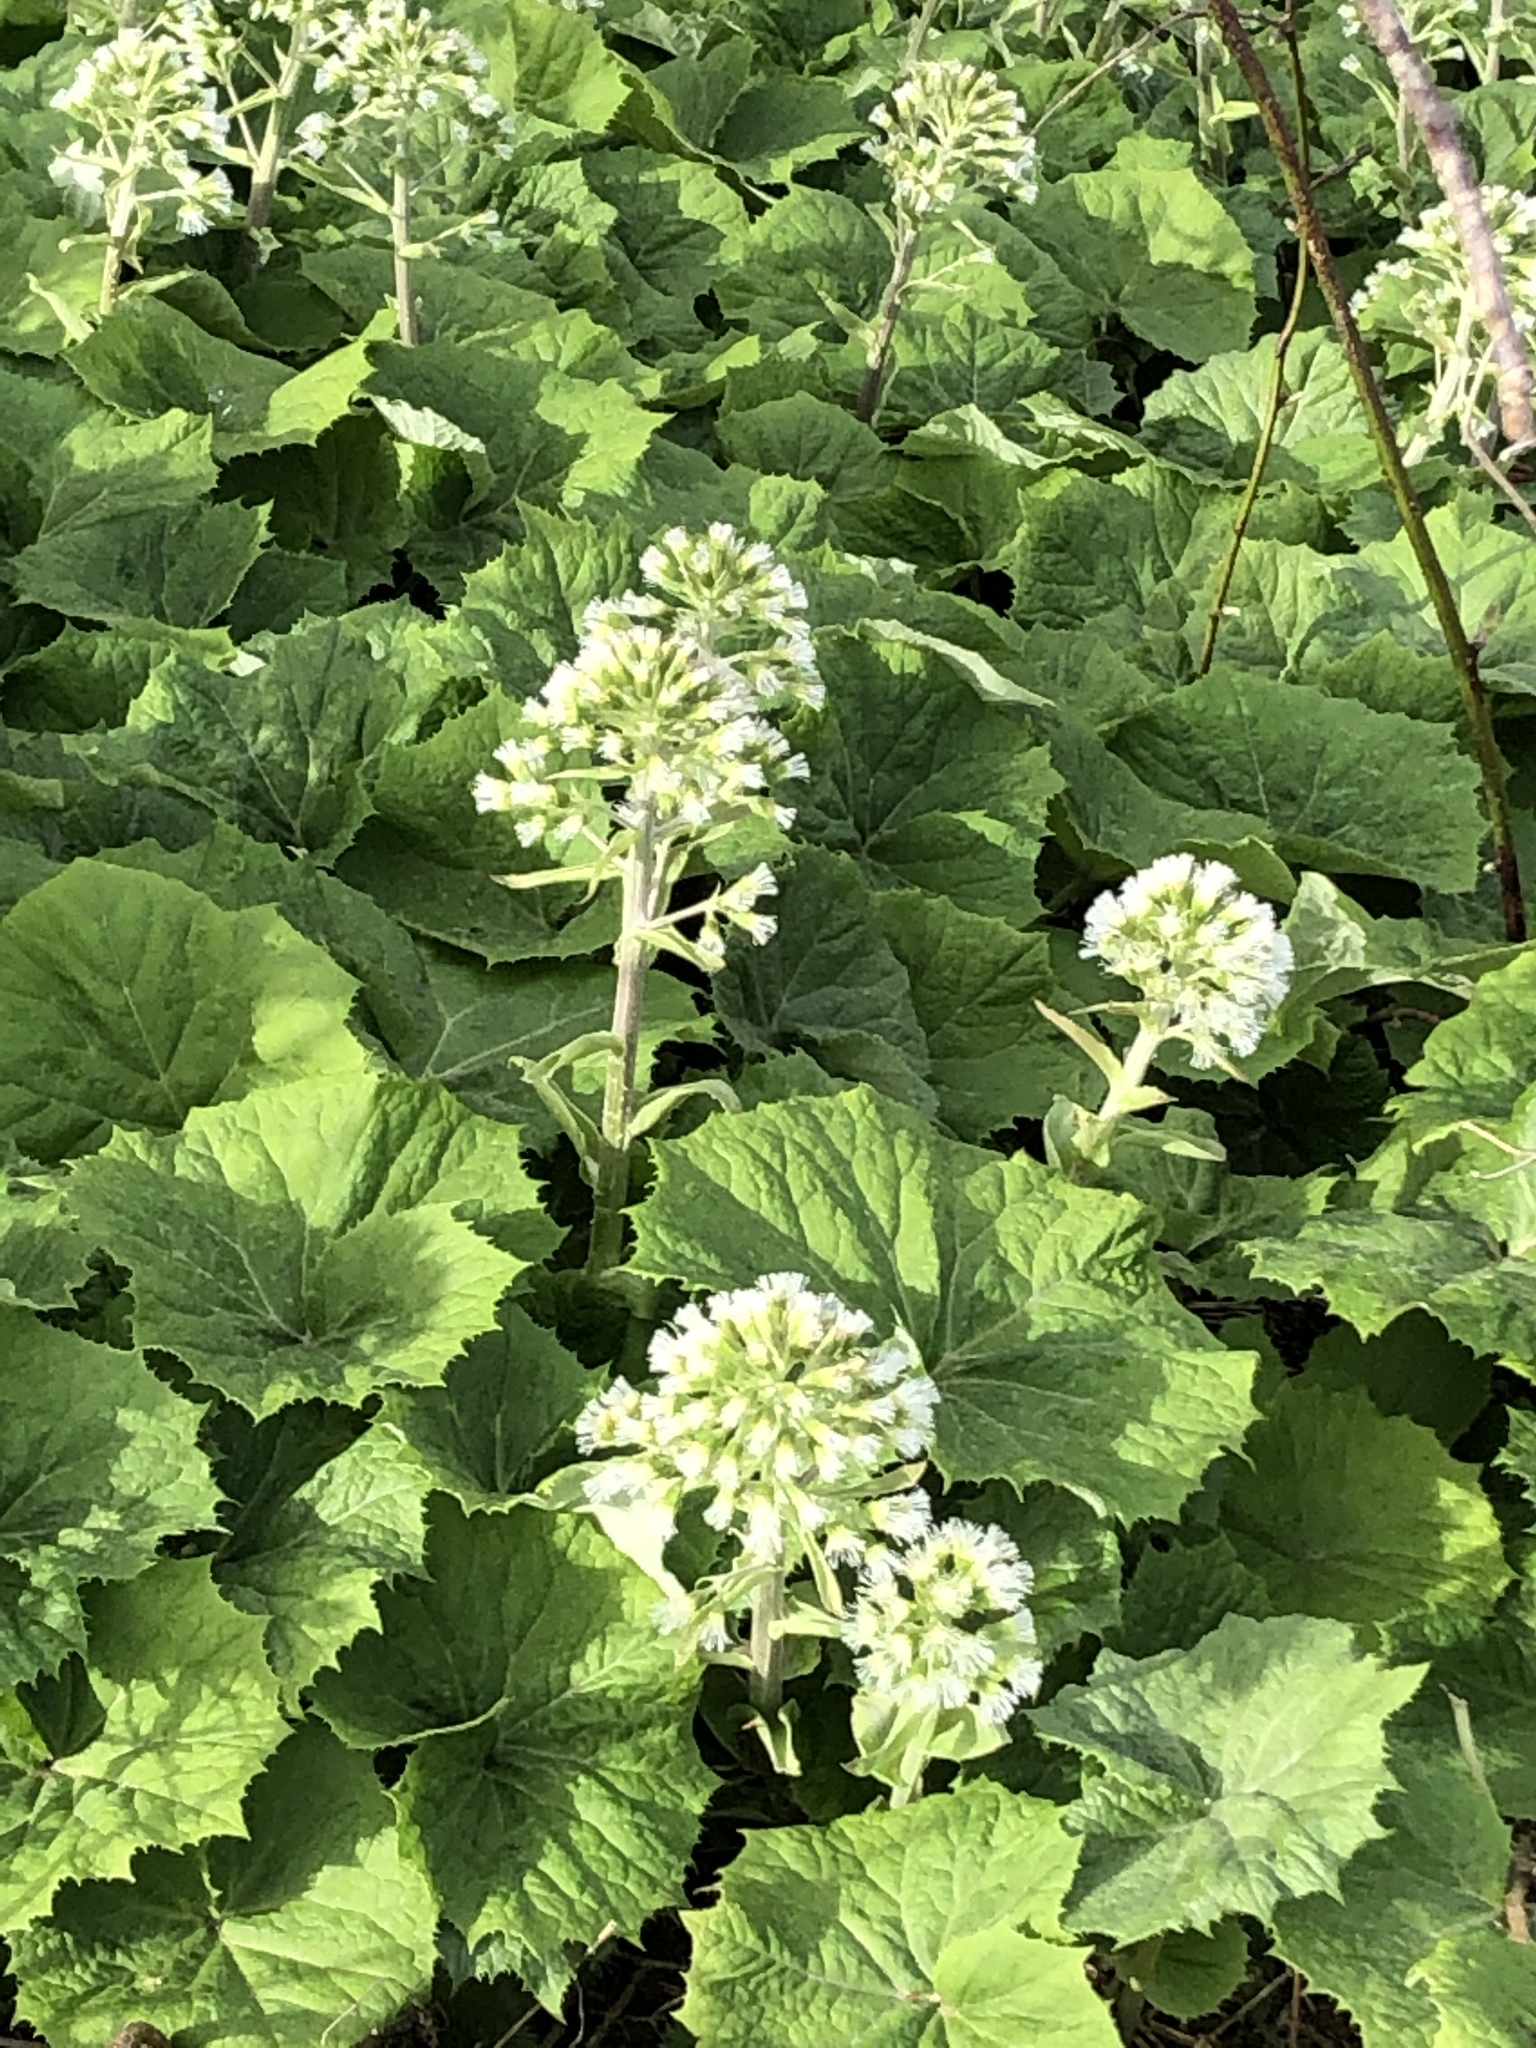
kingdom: Plantae
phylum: Tracheophyta
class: Magnoliopsida
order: Asterales
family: Asteraceae
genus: Petasites
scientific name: Petasites albus
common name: White butterbur
